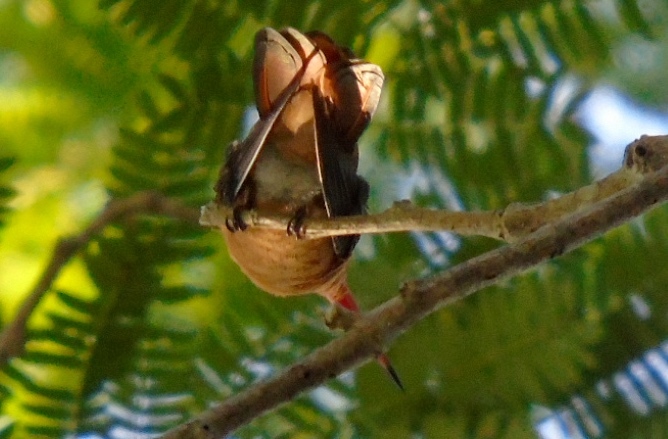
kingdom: Animalia
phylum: Chordata
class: Aves
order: Apodiformes
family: Trochilidae
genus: Amazilia
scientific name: Amazilia rutila
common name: Cinnamon hummingbird
